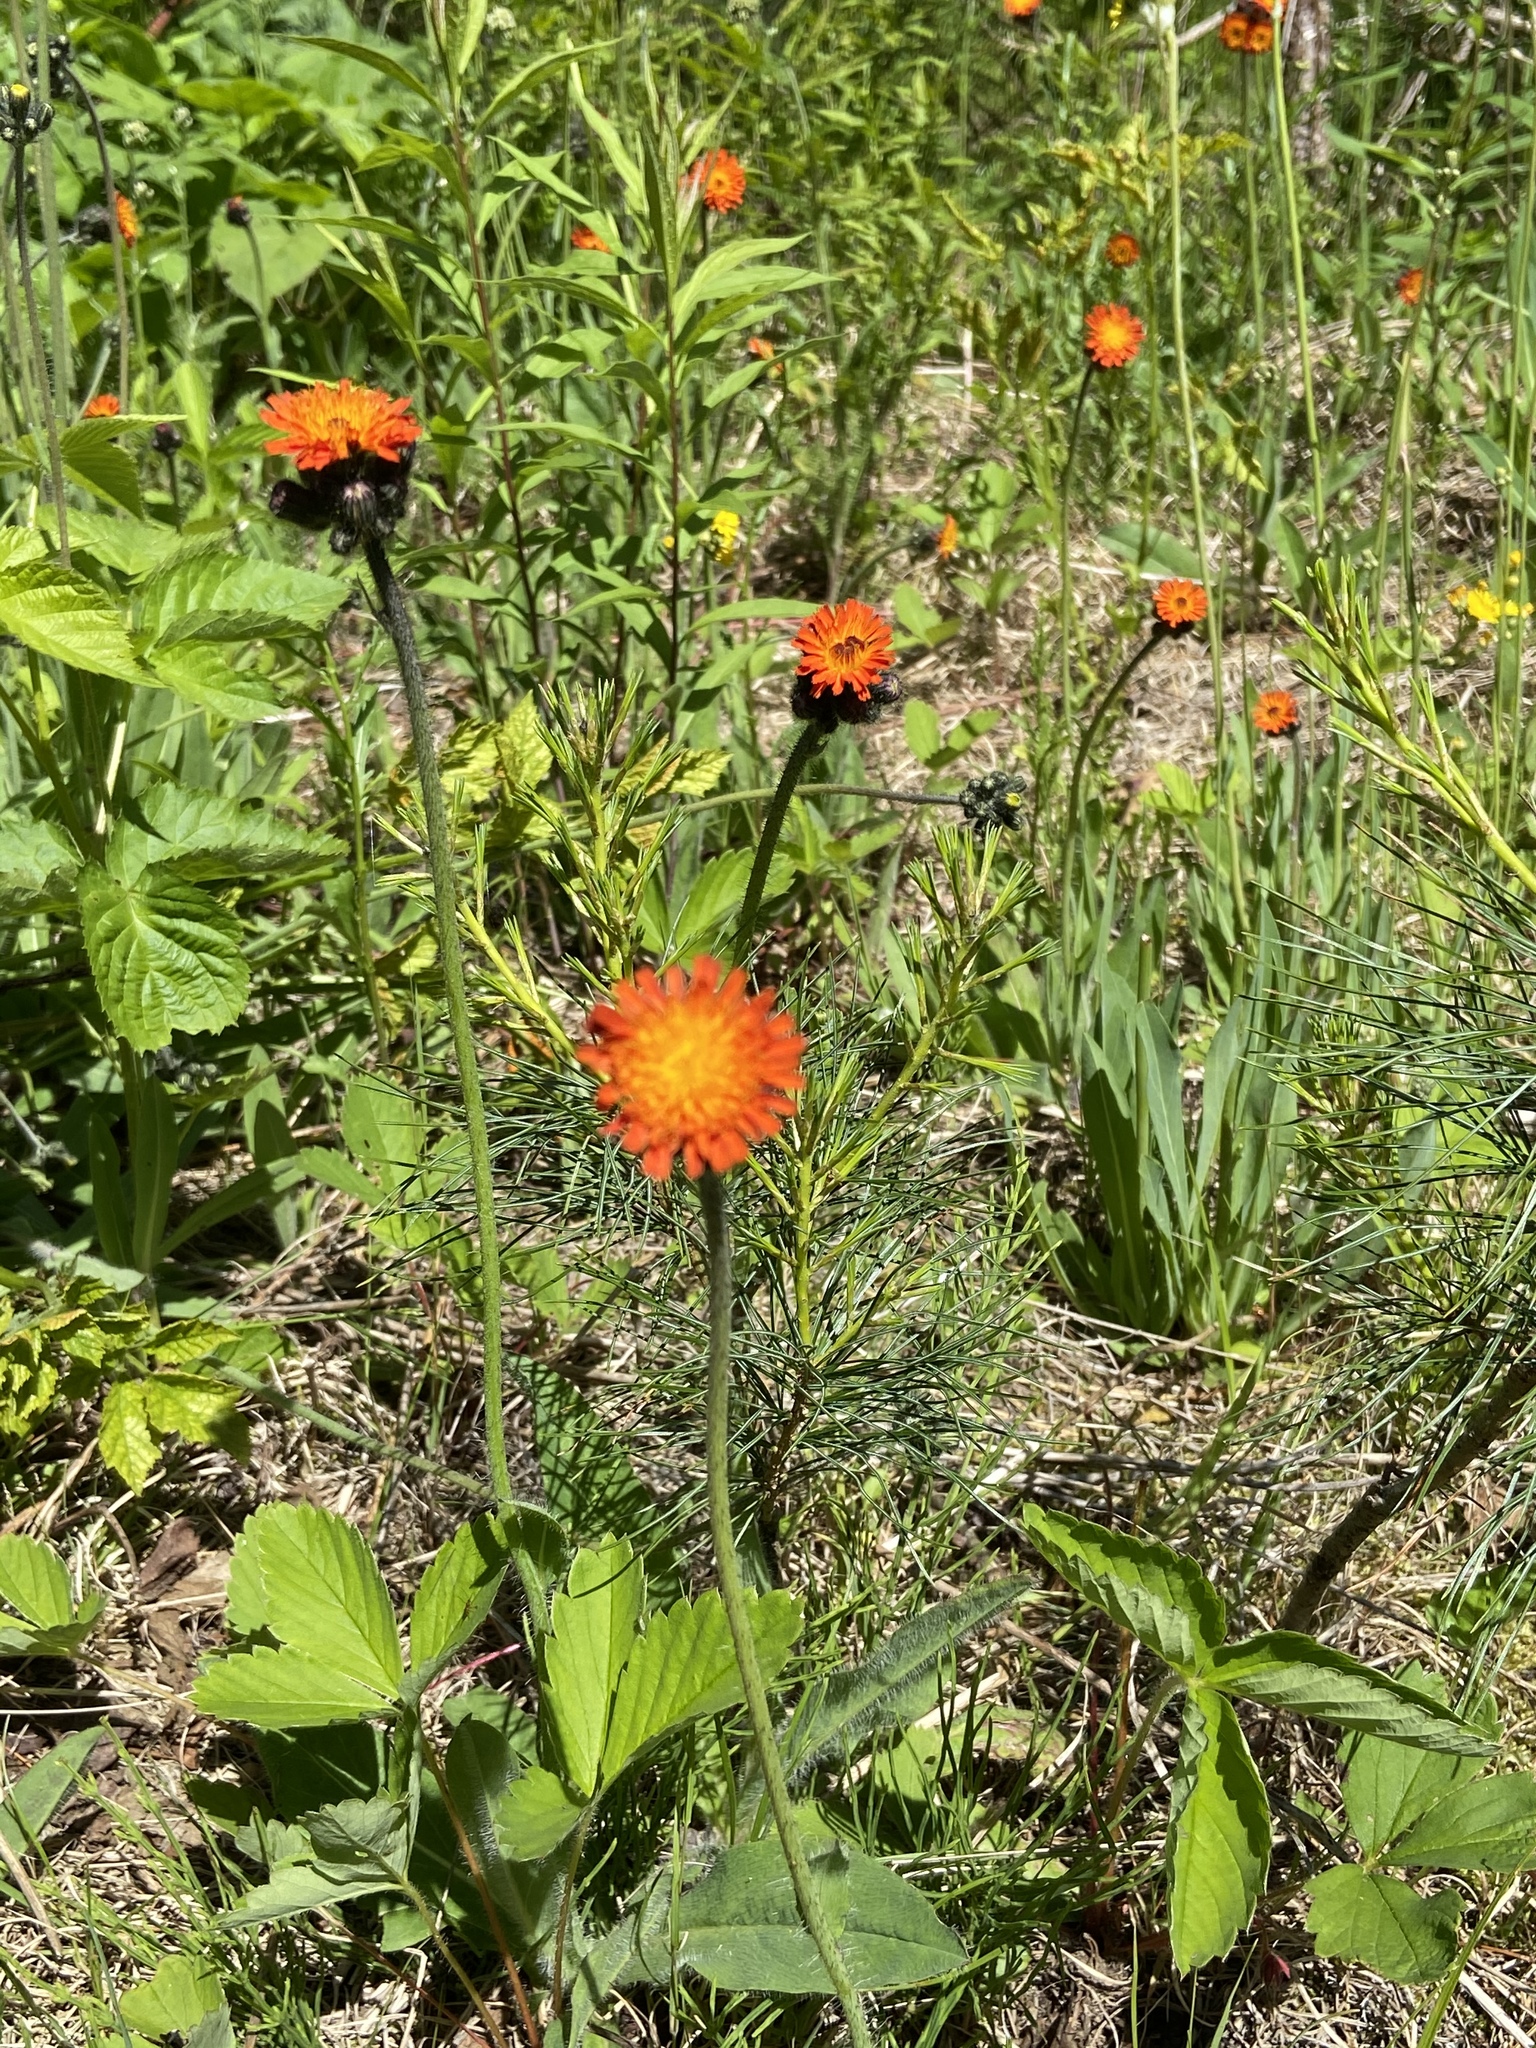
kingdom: Plantae
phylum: Tracheophyta
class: Magnoliopsida
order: Asterales
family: Asteraceae
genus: Pilosella
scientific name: Pilosella aurantiaca
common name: Fox-and-cubs
